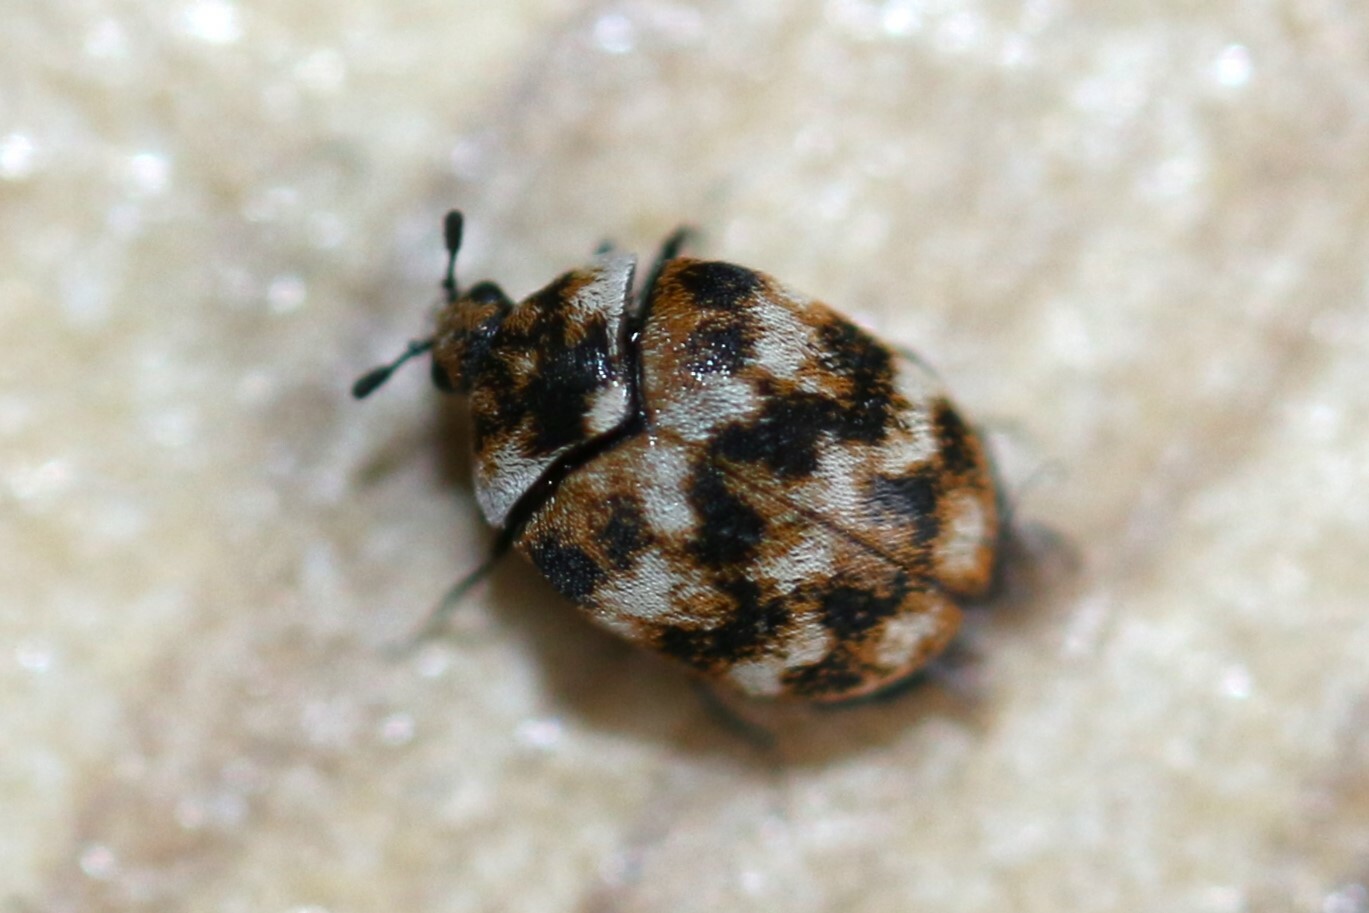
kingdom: Animalia
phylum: Arthropoda
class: Insecta
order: Coleoptera
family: Dermestidae
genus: Anthrenus
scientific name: Anthrenus verbasci
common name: Varied carpet beetle
